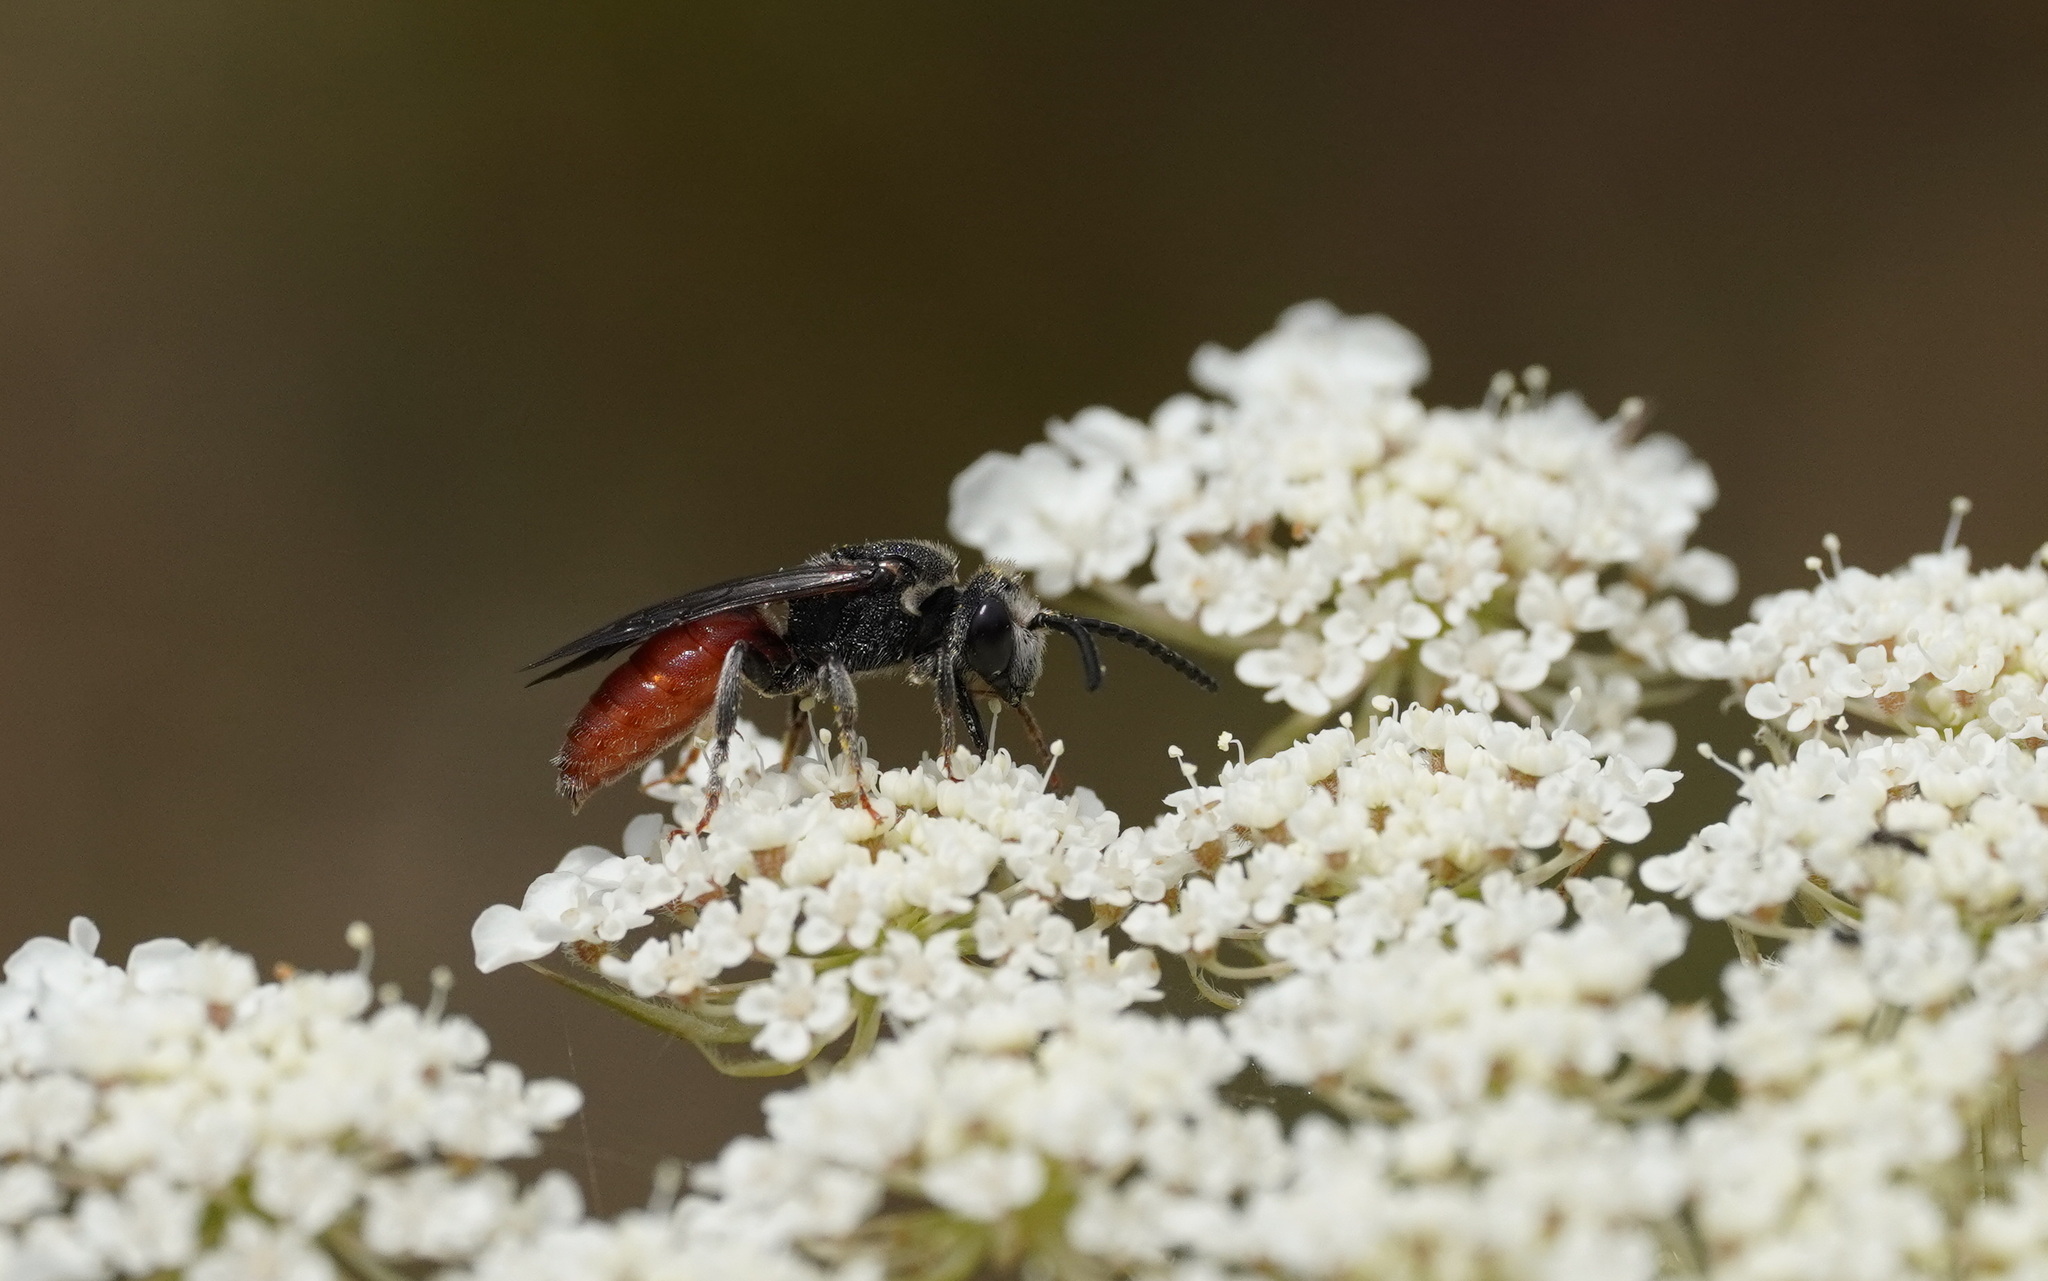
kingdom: Animalia
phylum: Arthropoda
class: Insecta
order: Hymenoptera
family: Halictidae
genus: Sphecodes
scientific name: Sphecodes albilabris
